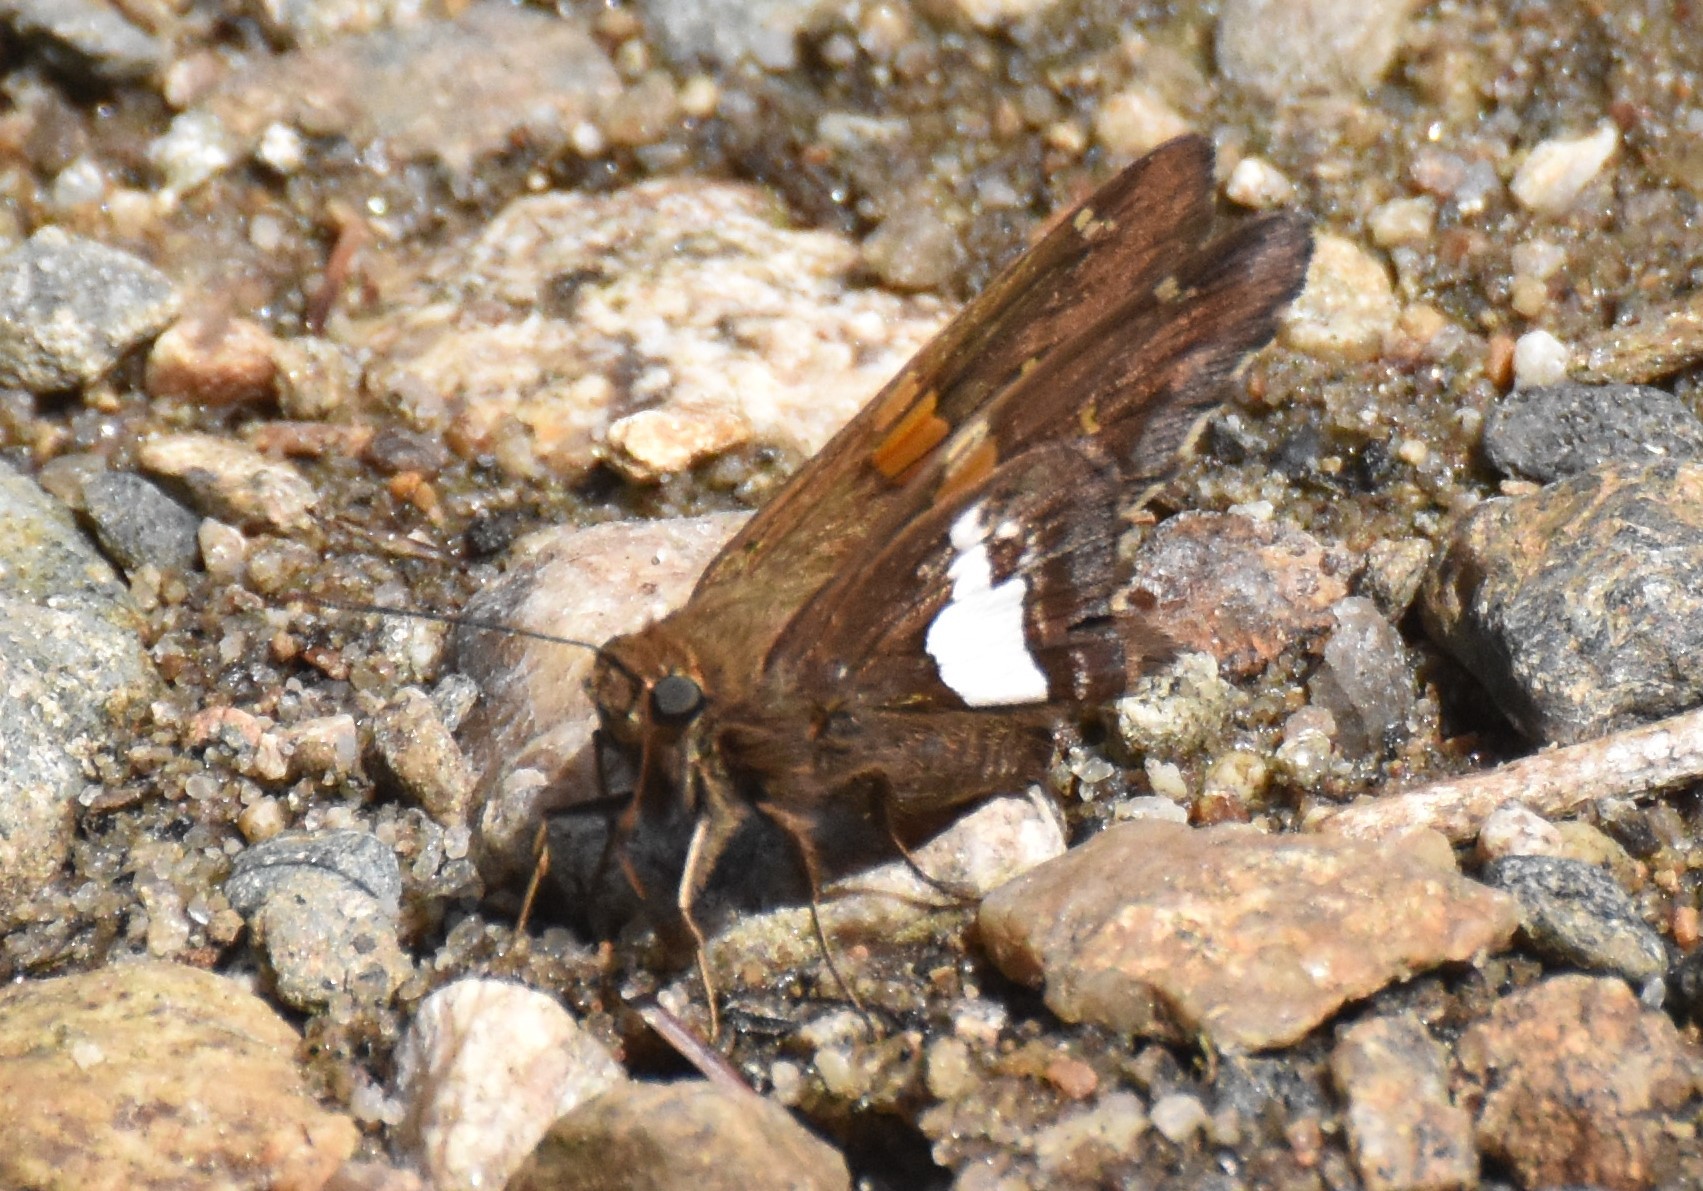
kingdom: Animalia
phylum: Arthropoda
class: Insecta
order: Lepidoptera
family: Hesperiidae
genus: Epargyreus
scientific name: Epargyreus clarus
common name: Silver-spotted skipper
